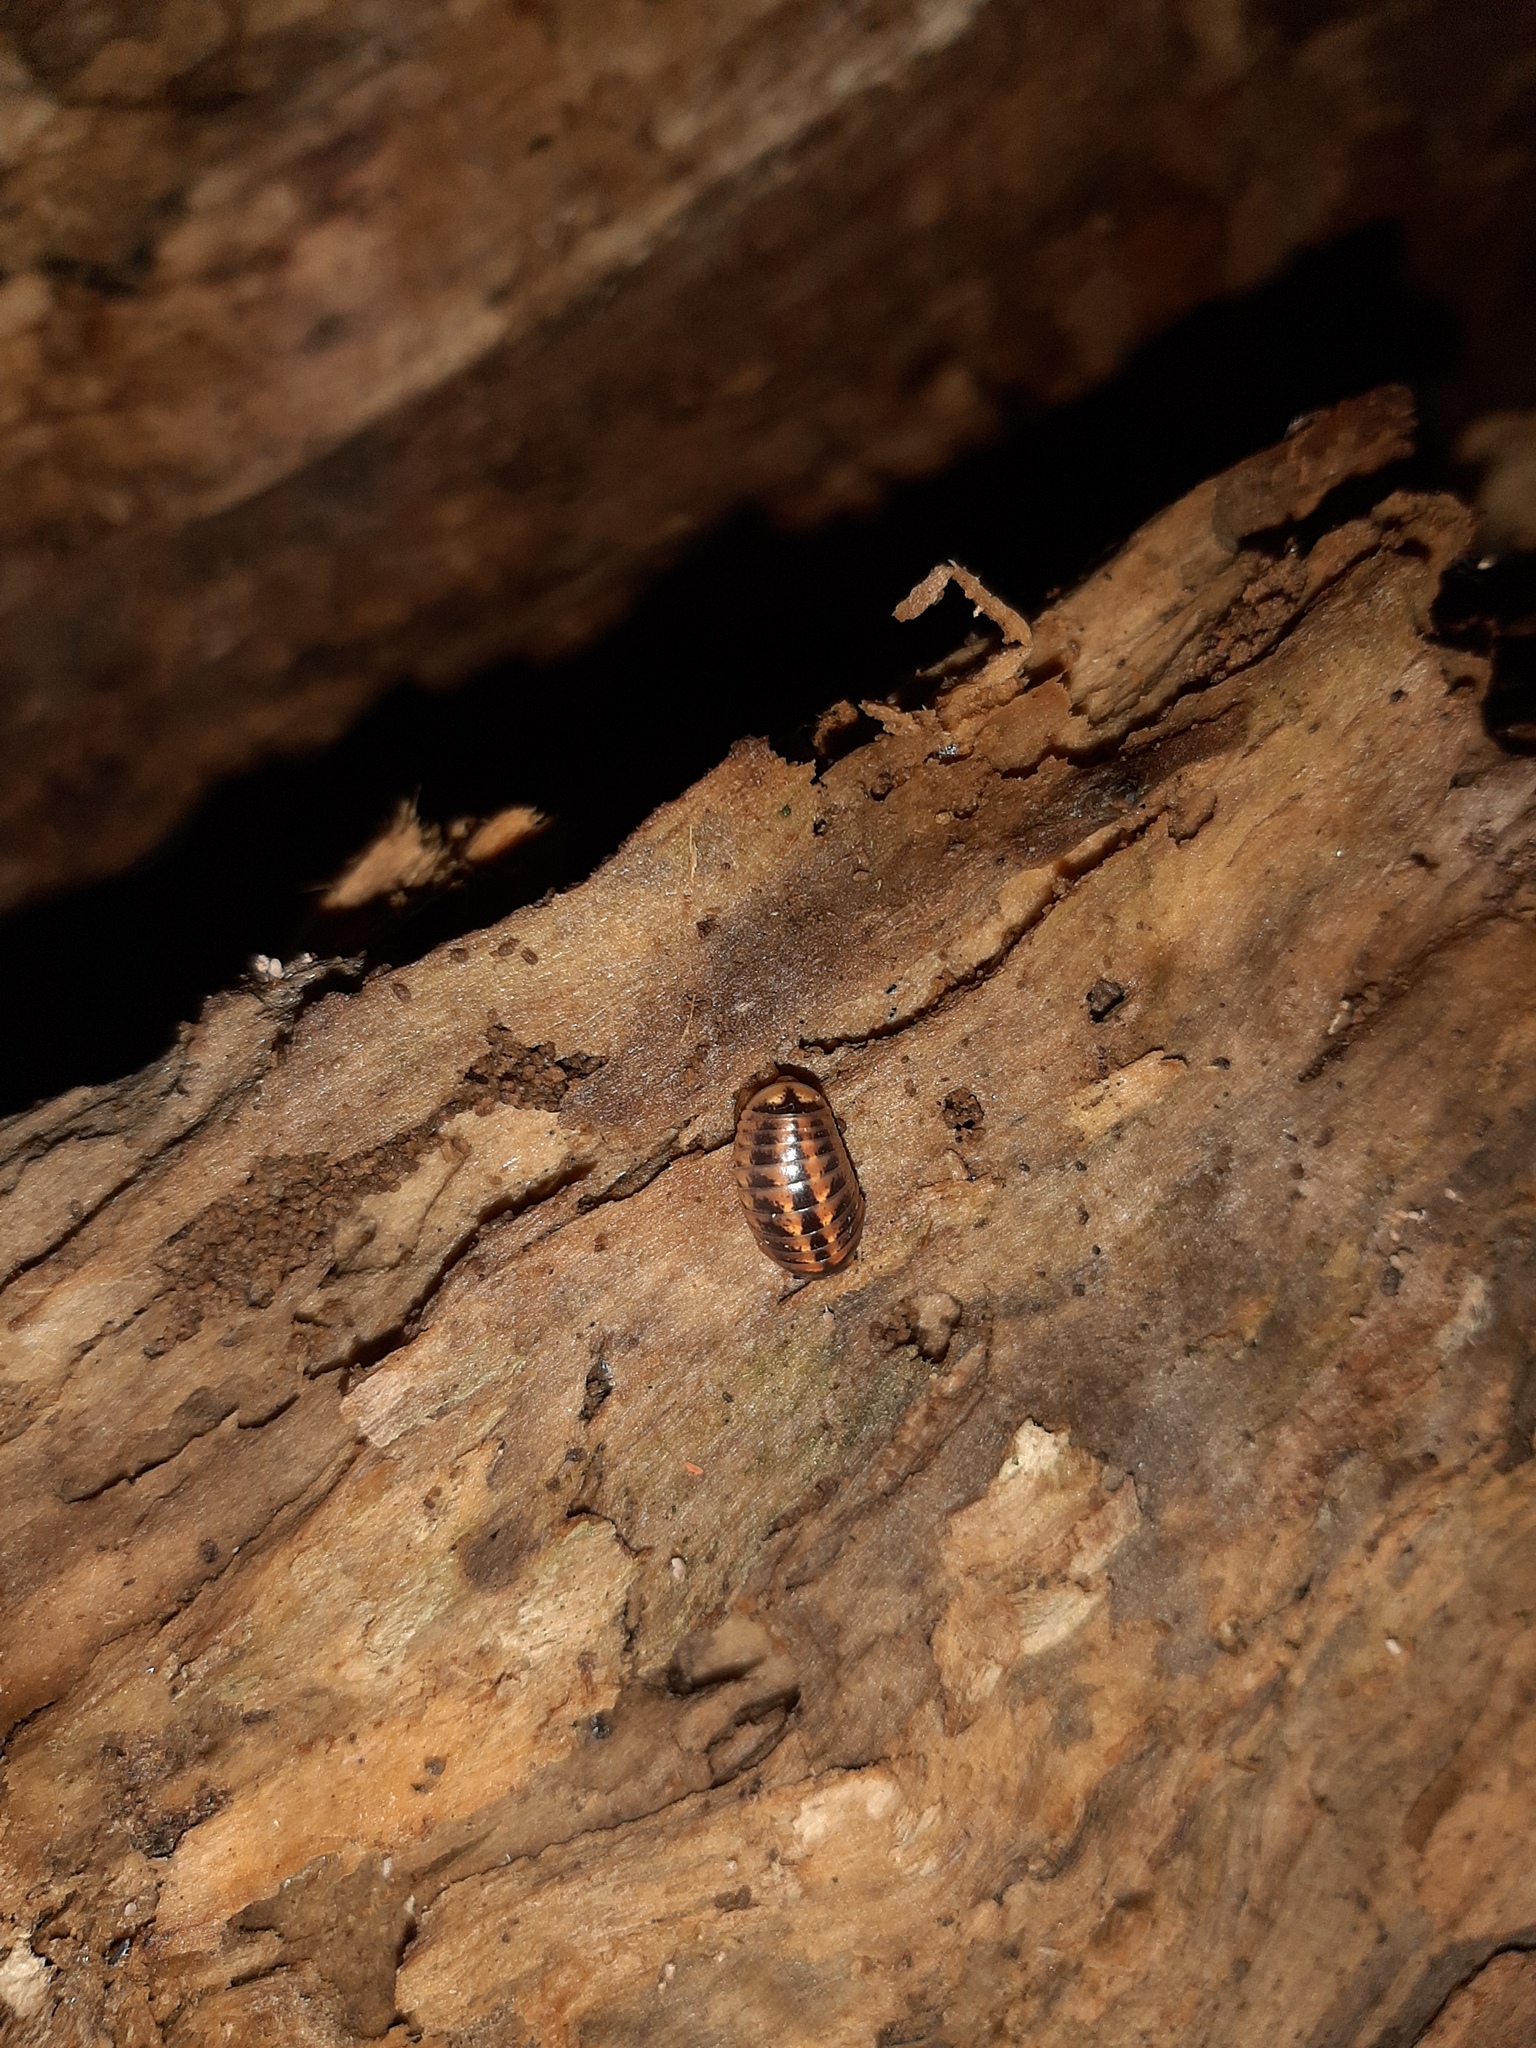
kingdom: Animalia
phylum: Arthropoda
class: Diplopoda
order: Glomerida
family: Glomeridae
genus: Glomeris
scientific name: Glomeris klugii
